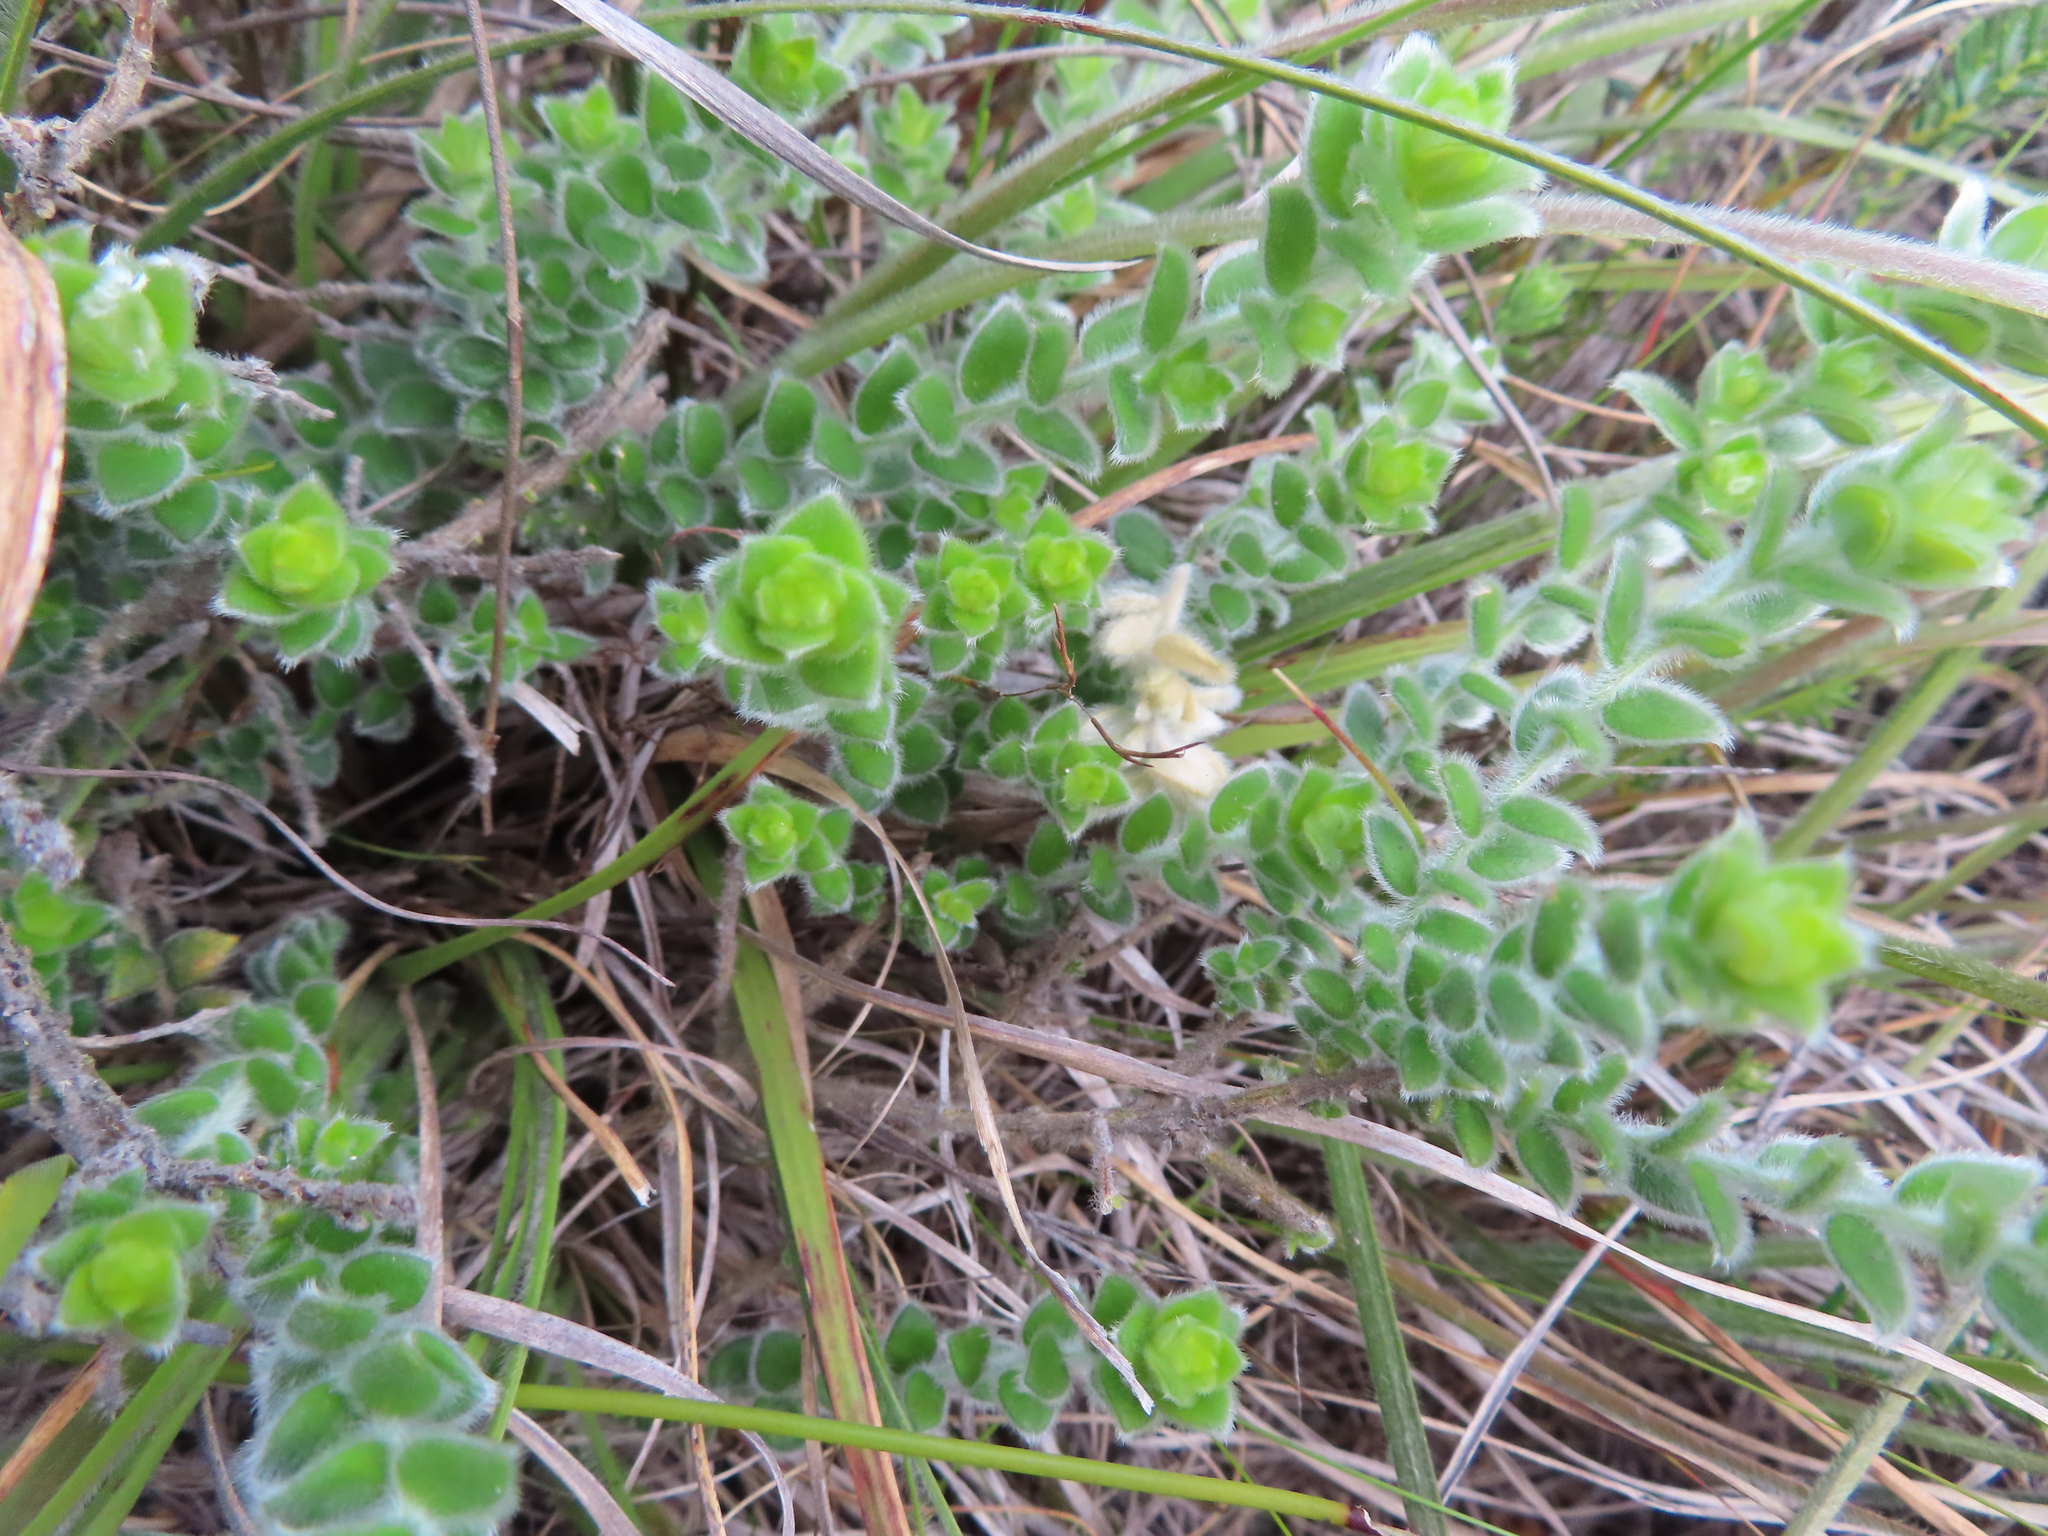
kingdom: Plantae
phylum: Tracheophyta
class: Magnoliopsida
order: Malvales
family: Thymelaeaceae
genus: Gnidia
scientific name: Gnidia anomala
